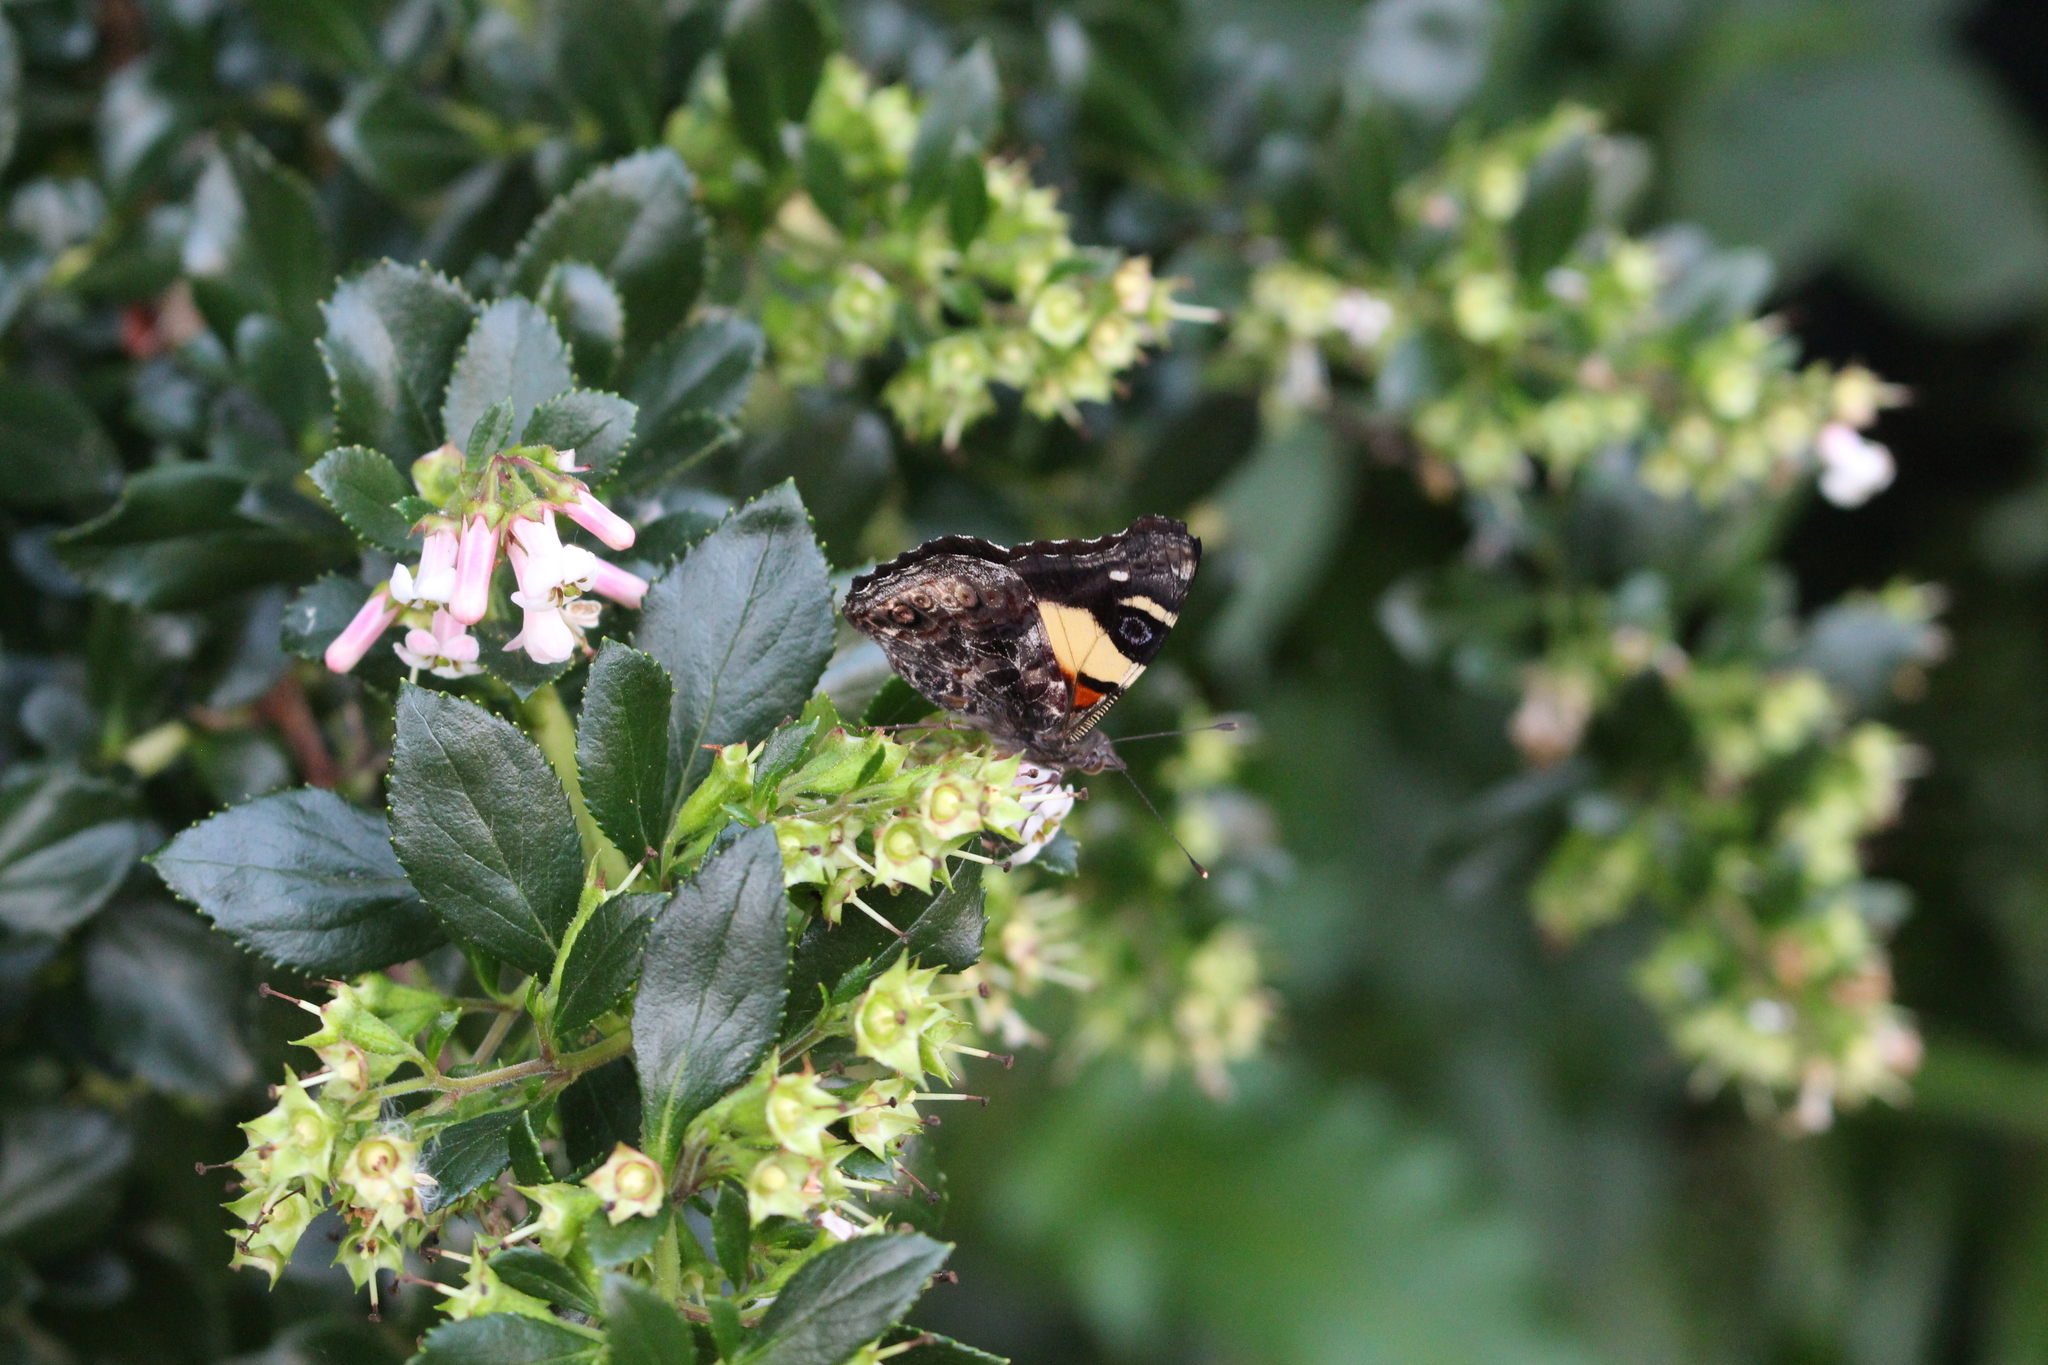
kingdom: Animalia
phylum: Arthropoda
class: Insecta
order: Lepidoptera
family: Nymphalidae
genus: Vanessa
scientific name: Vanessa itea
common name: Yellow admiral
